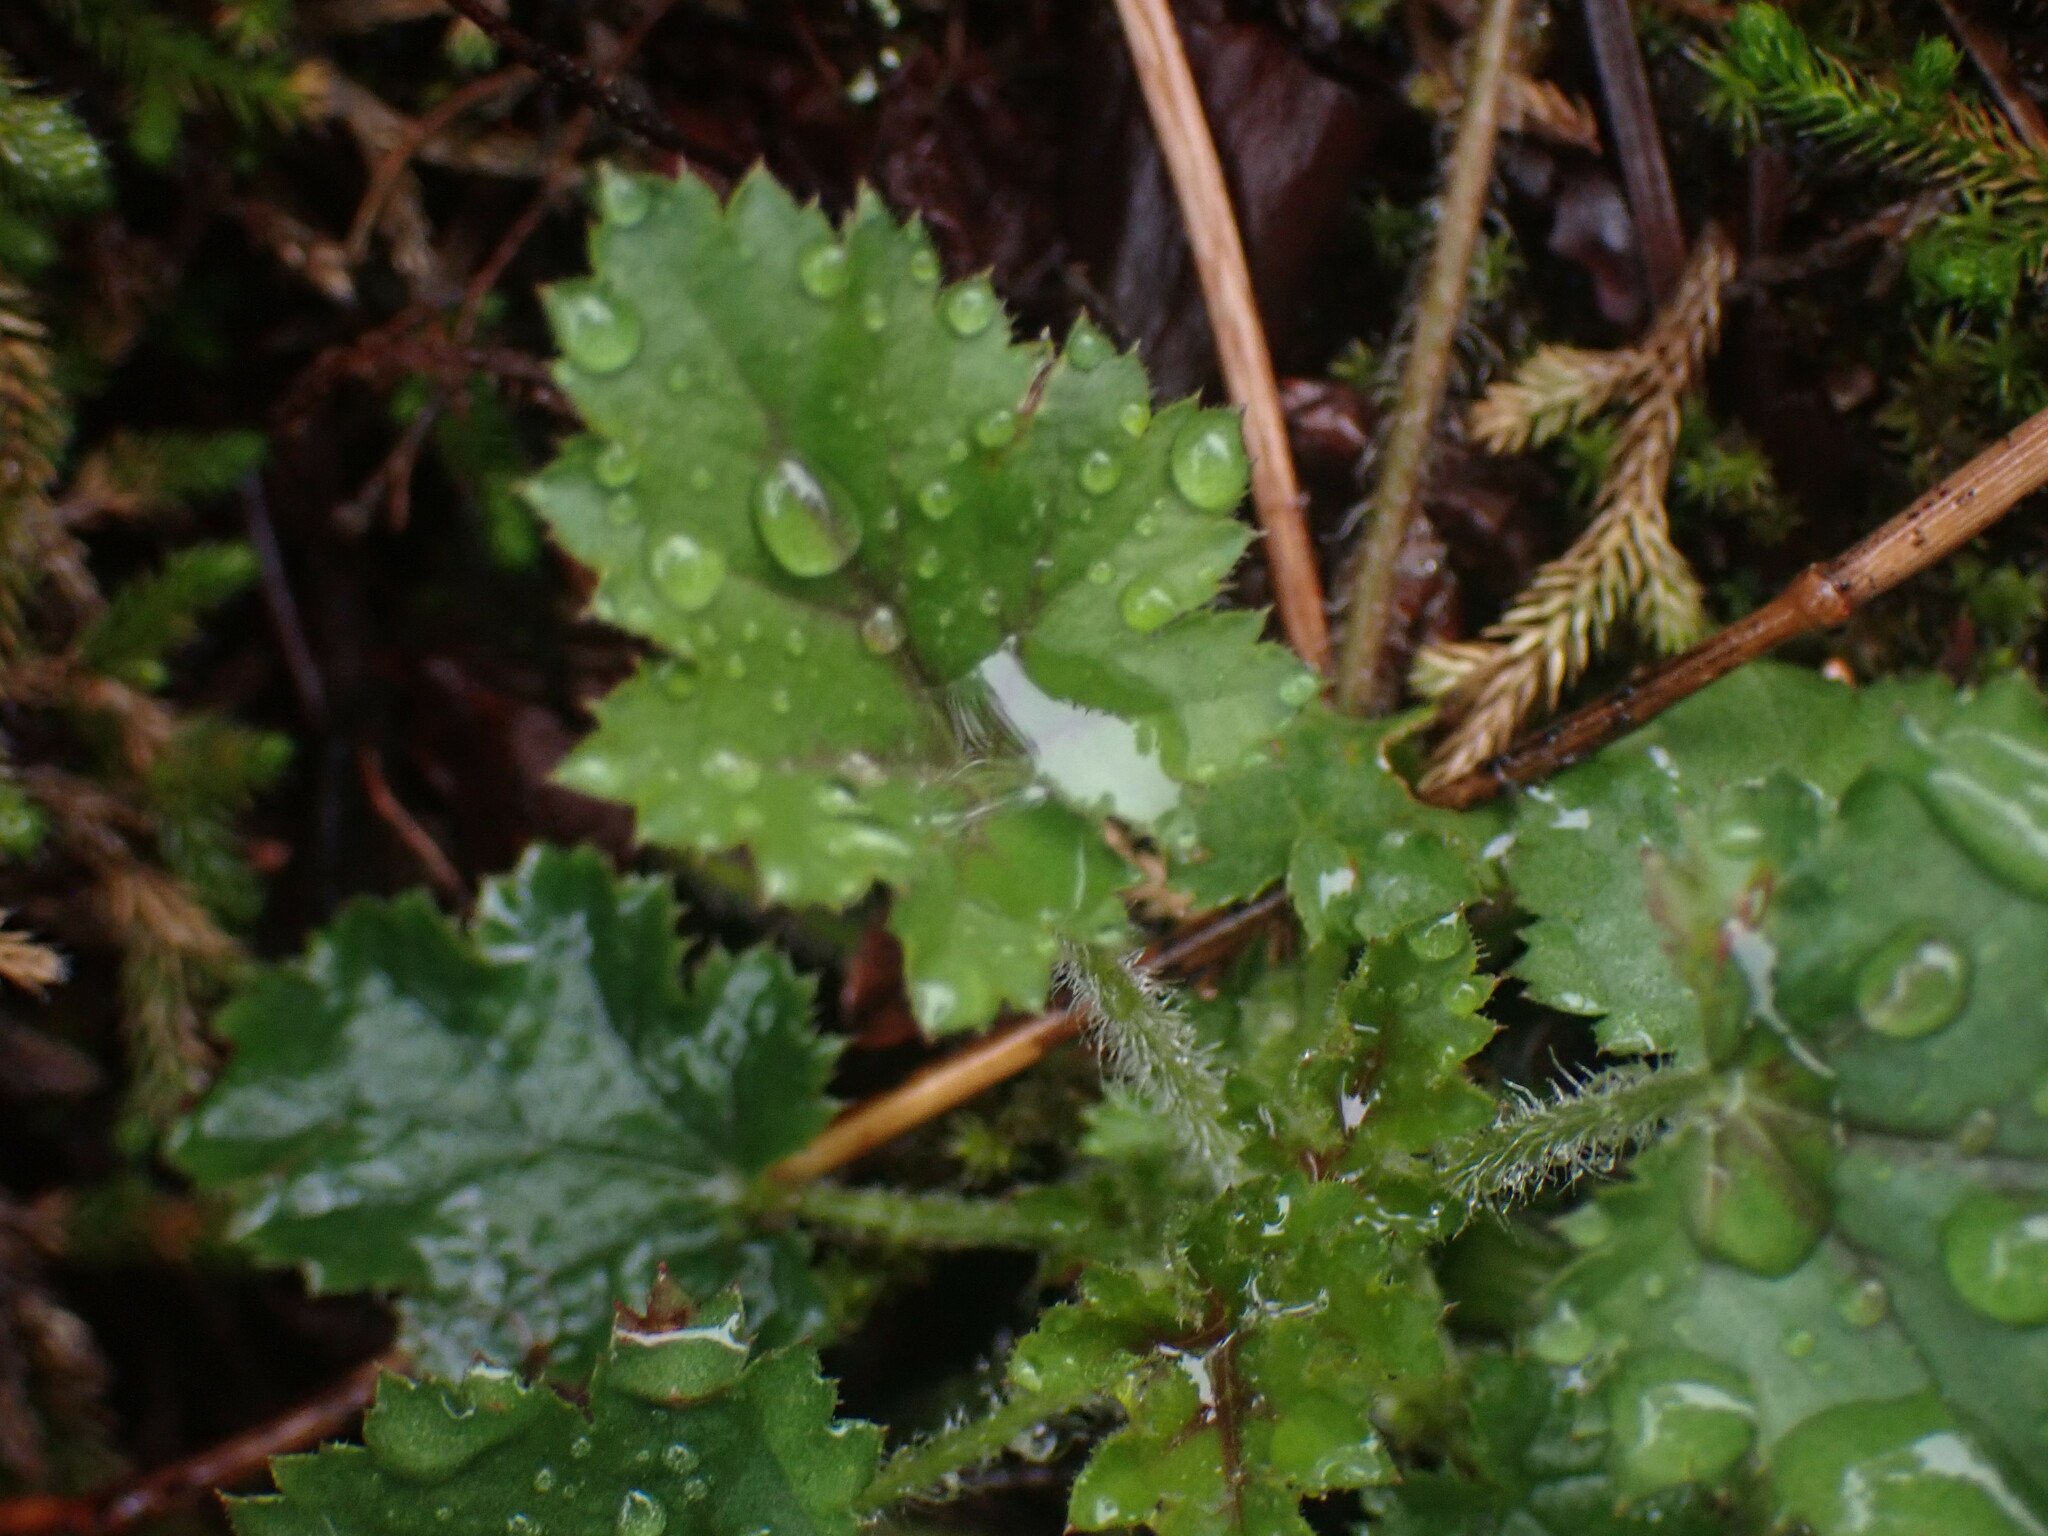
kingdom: Plantae
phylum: Tracheophyta
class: Magnoliopsida
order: Saxifragales
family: Saxifragaceae
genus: Heuchera
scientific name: Heuchera micrantha
